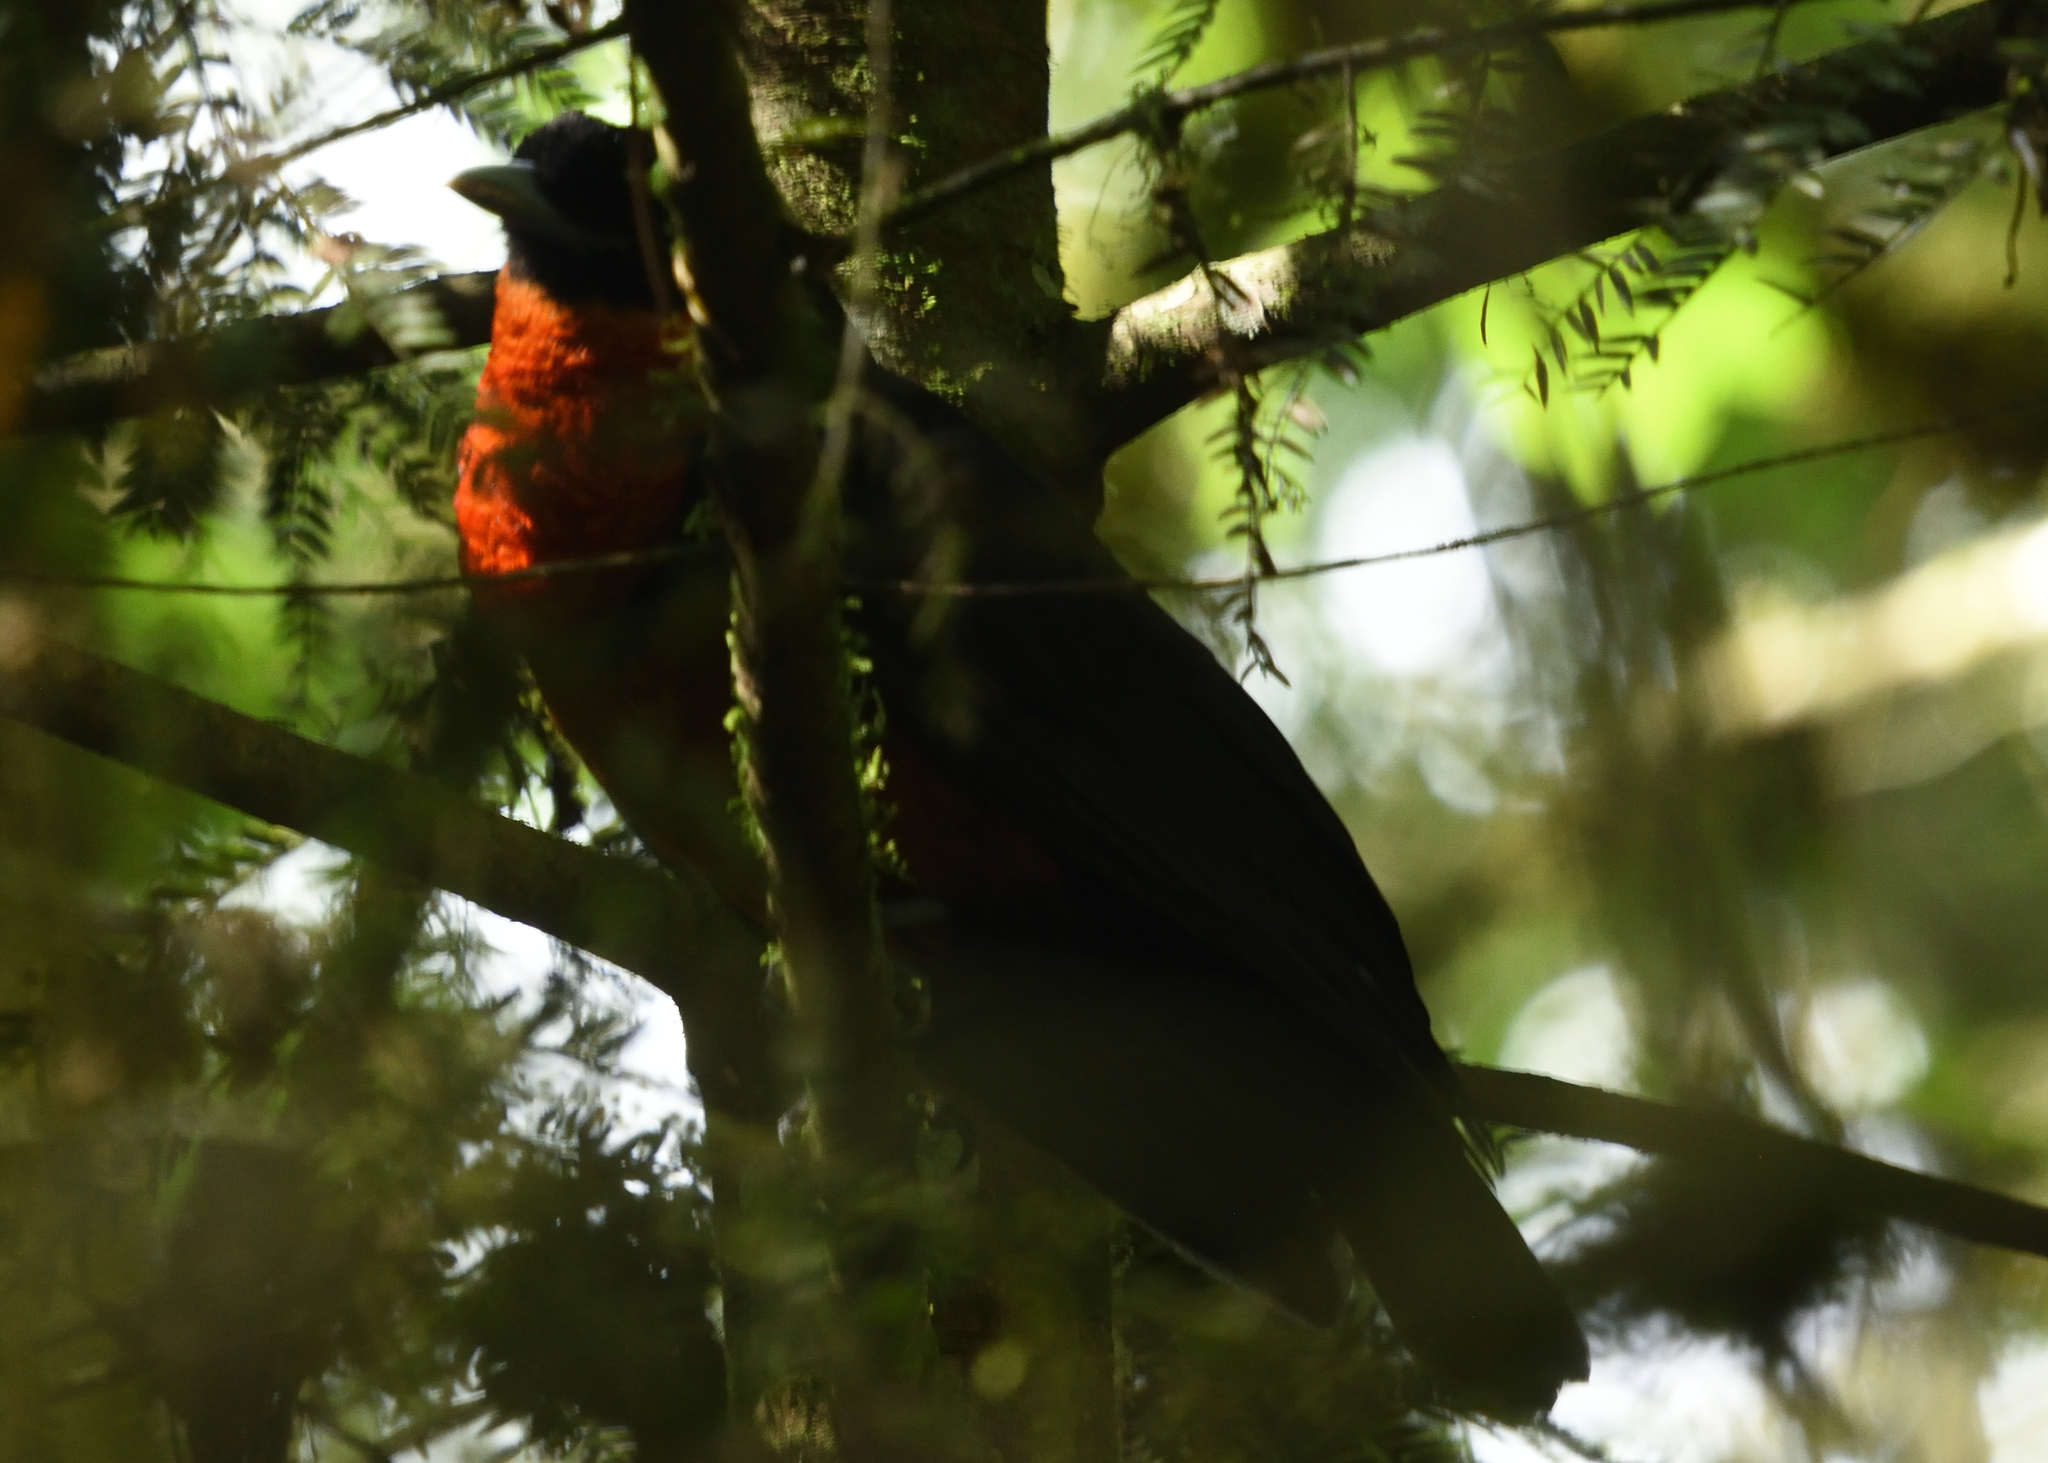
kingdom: Animalia
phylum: Chordata
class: Aves
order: Passeriformes
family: Cotingidae
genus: Pyroderus
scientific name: Pyroderus scutatus
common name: Red-ruffed fruitcrow
